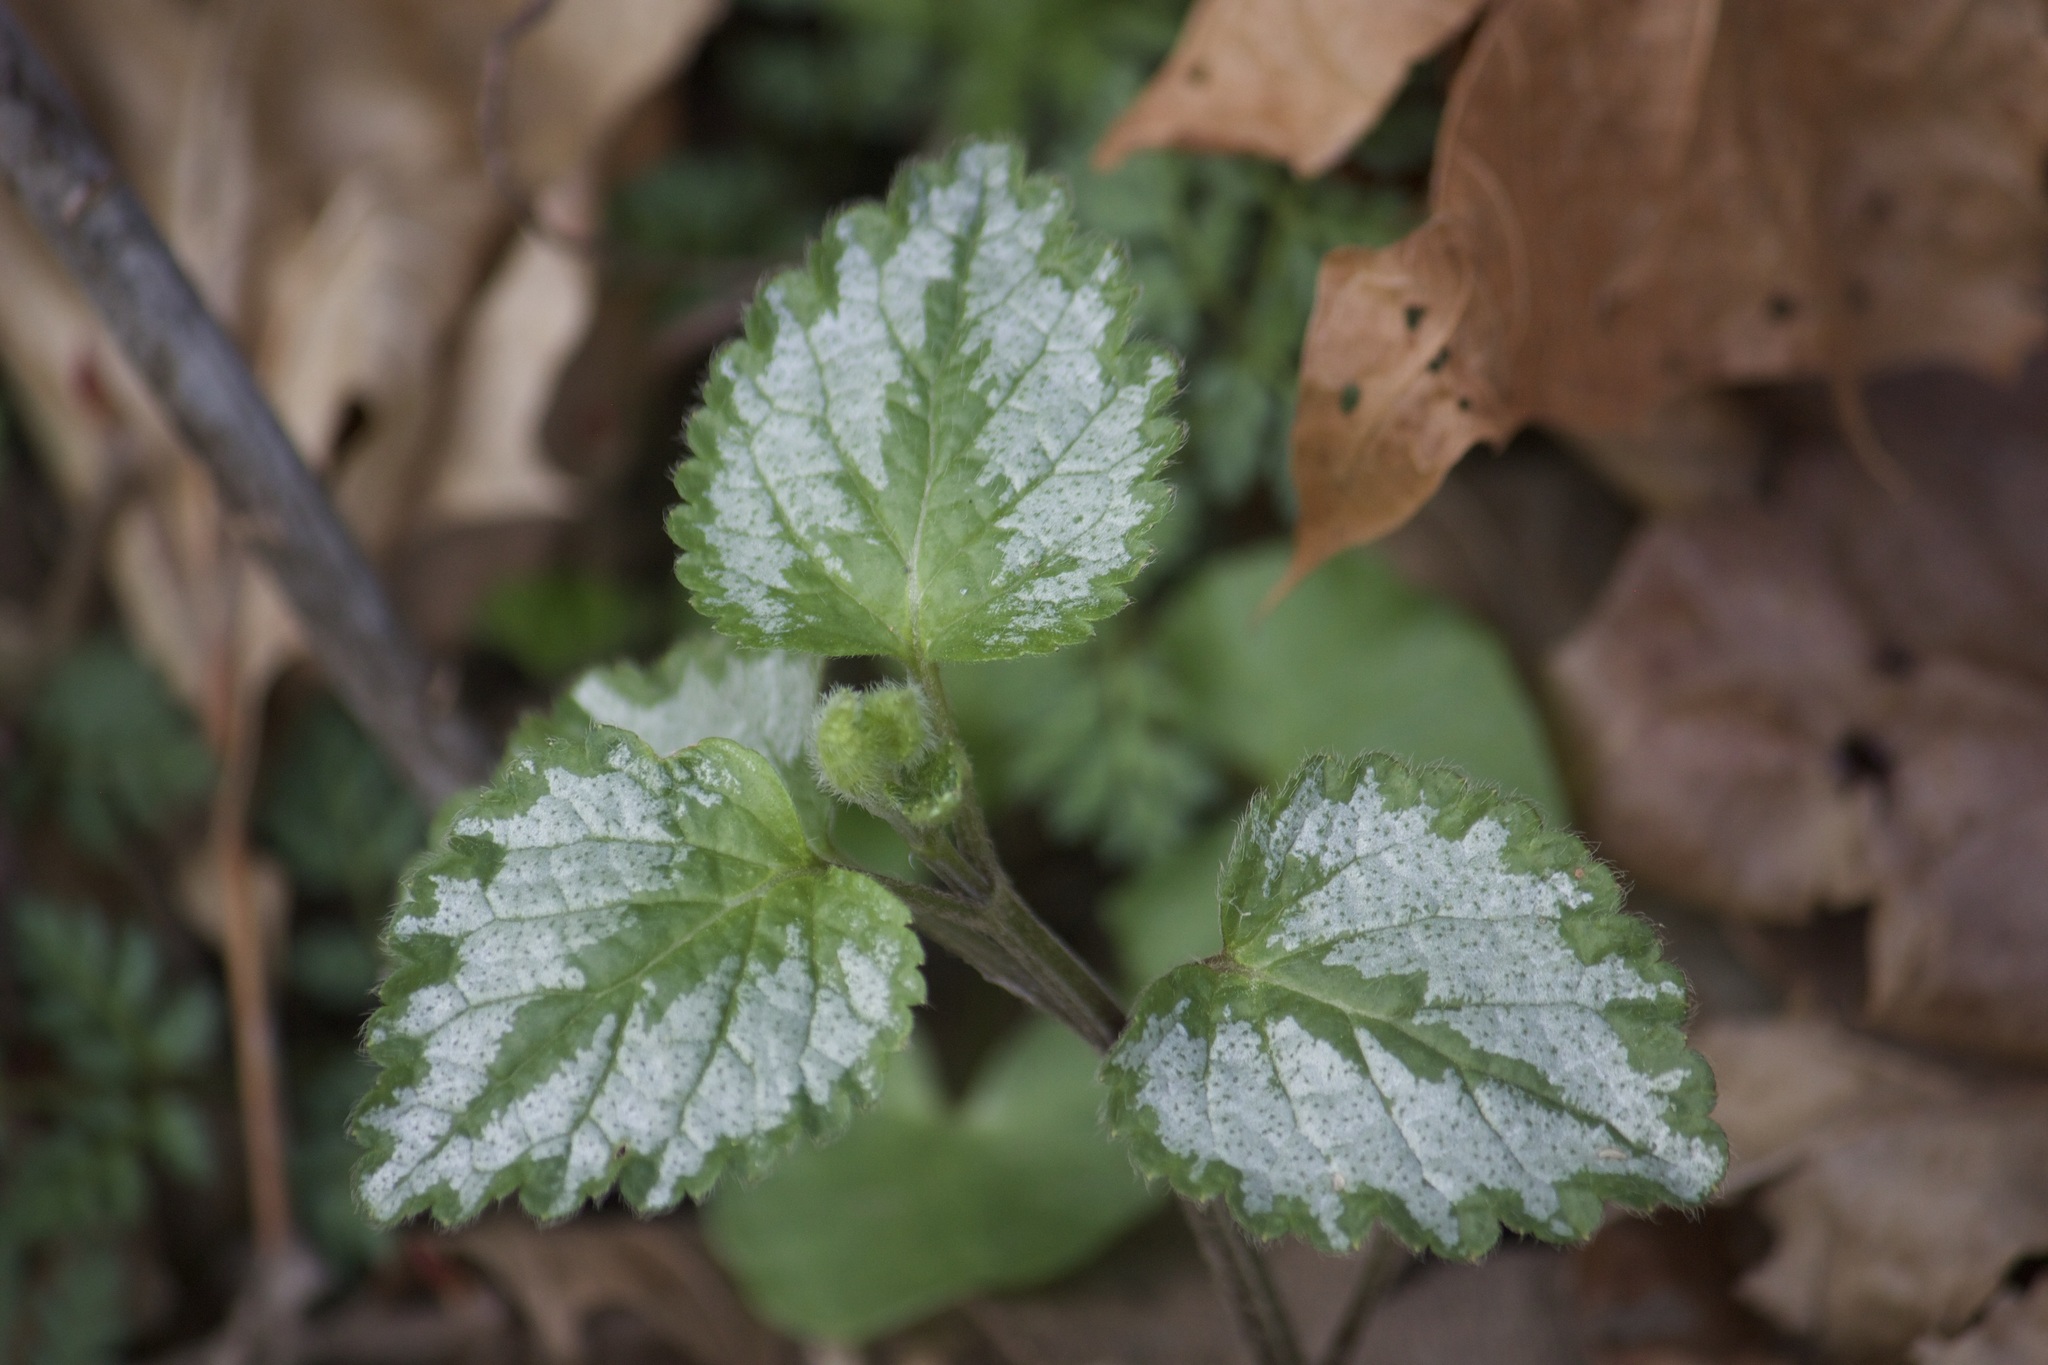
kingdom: Plantae
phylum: Tracheophyta
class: Magnoliopsida
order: Lamiales
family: Lamiaceae
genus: Lamium
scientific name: Lamium galeobdolon
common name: Yellow archangel
